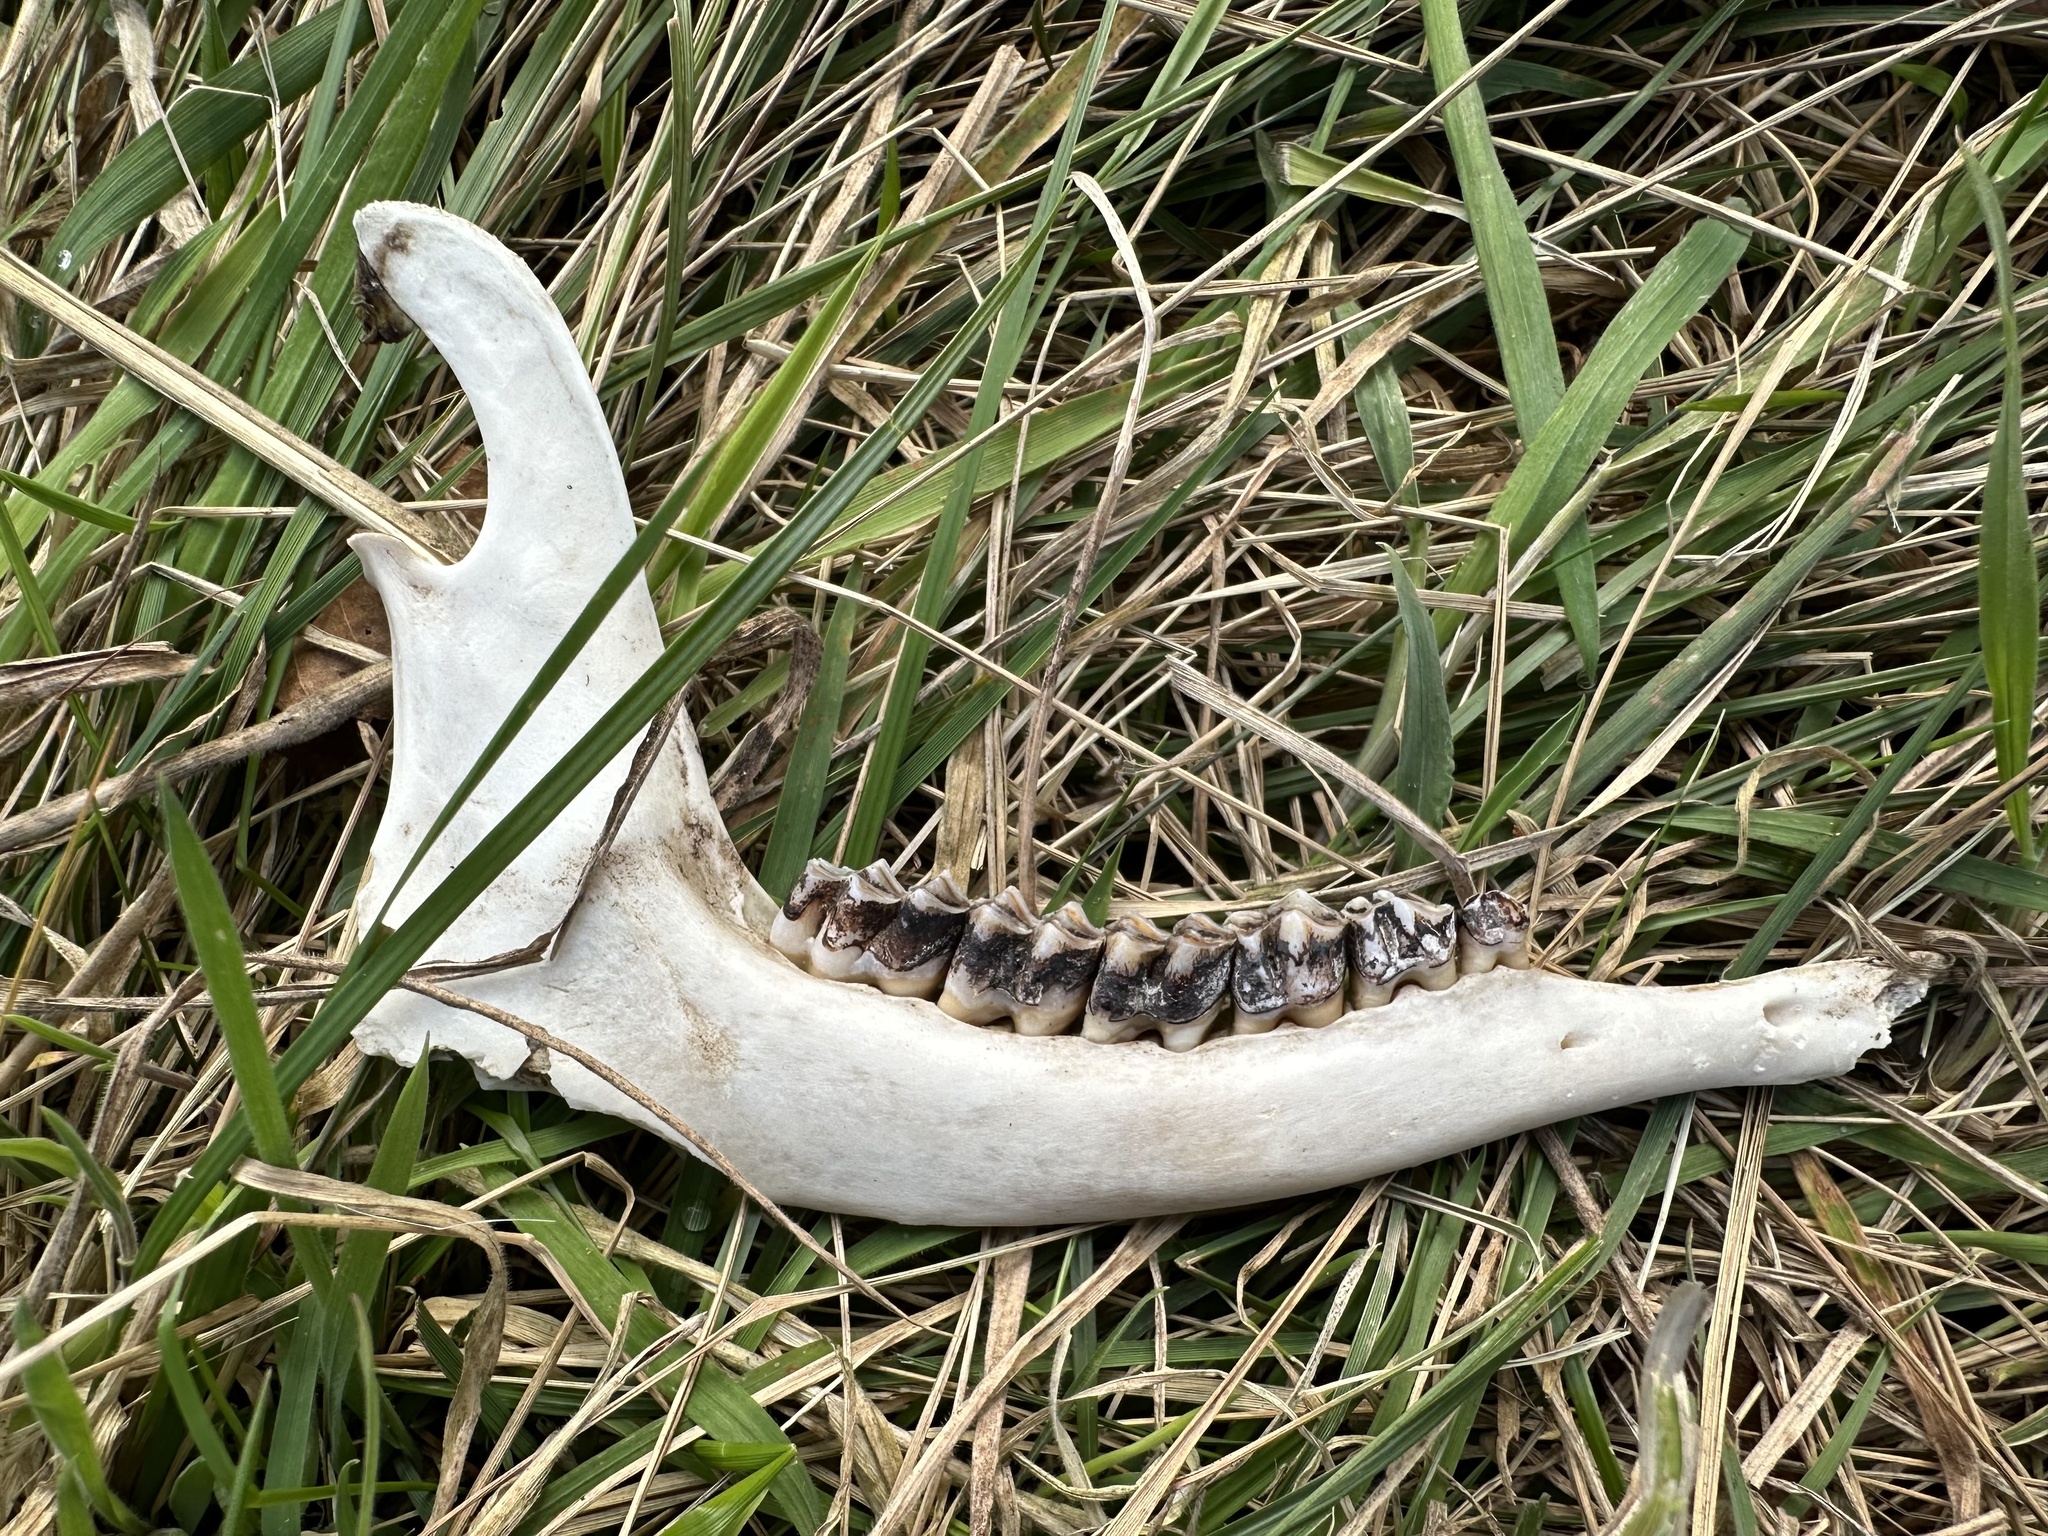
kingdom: Animalia
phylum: Chordata
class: Mammalia
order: Artiodactyla
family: Cervidae
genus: Capreolus
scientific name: Capreolus capreolus
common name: Western roe deer
